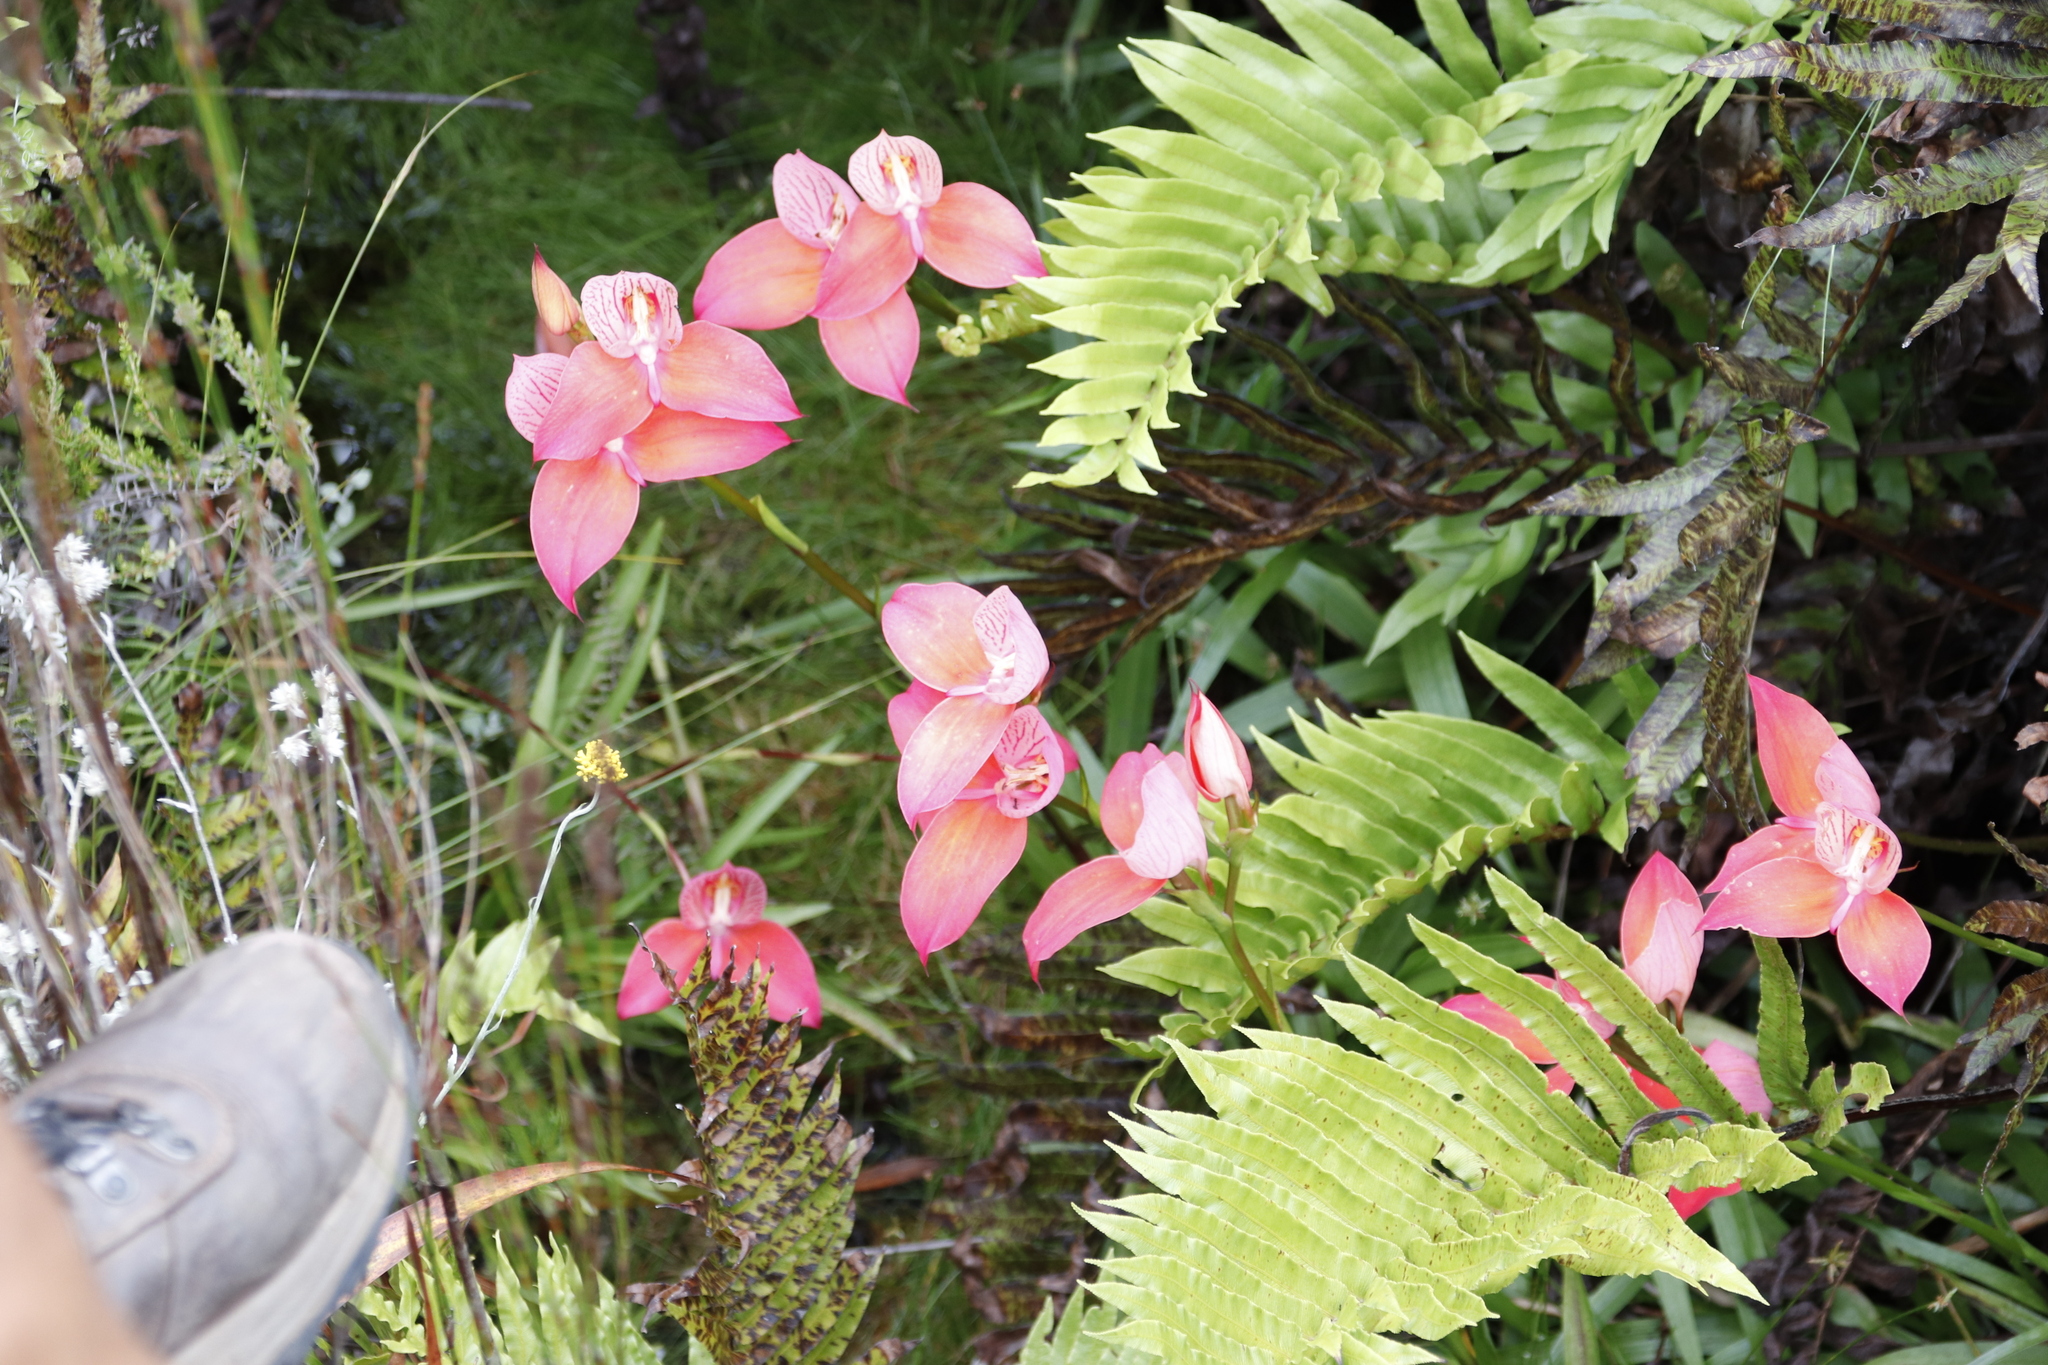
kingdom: Plantae
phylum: Tracheophyta
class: Liliopsida
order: Asparagales
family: Orchidaceae
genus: Disa
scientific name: Disa uniflora
